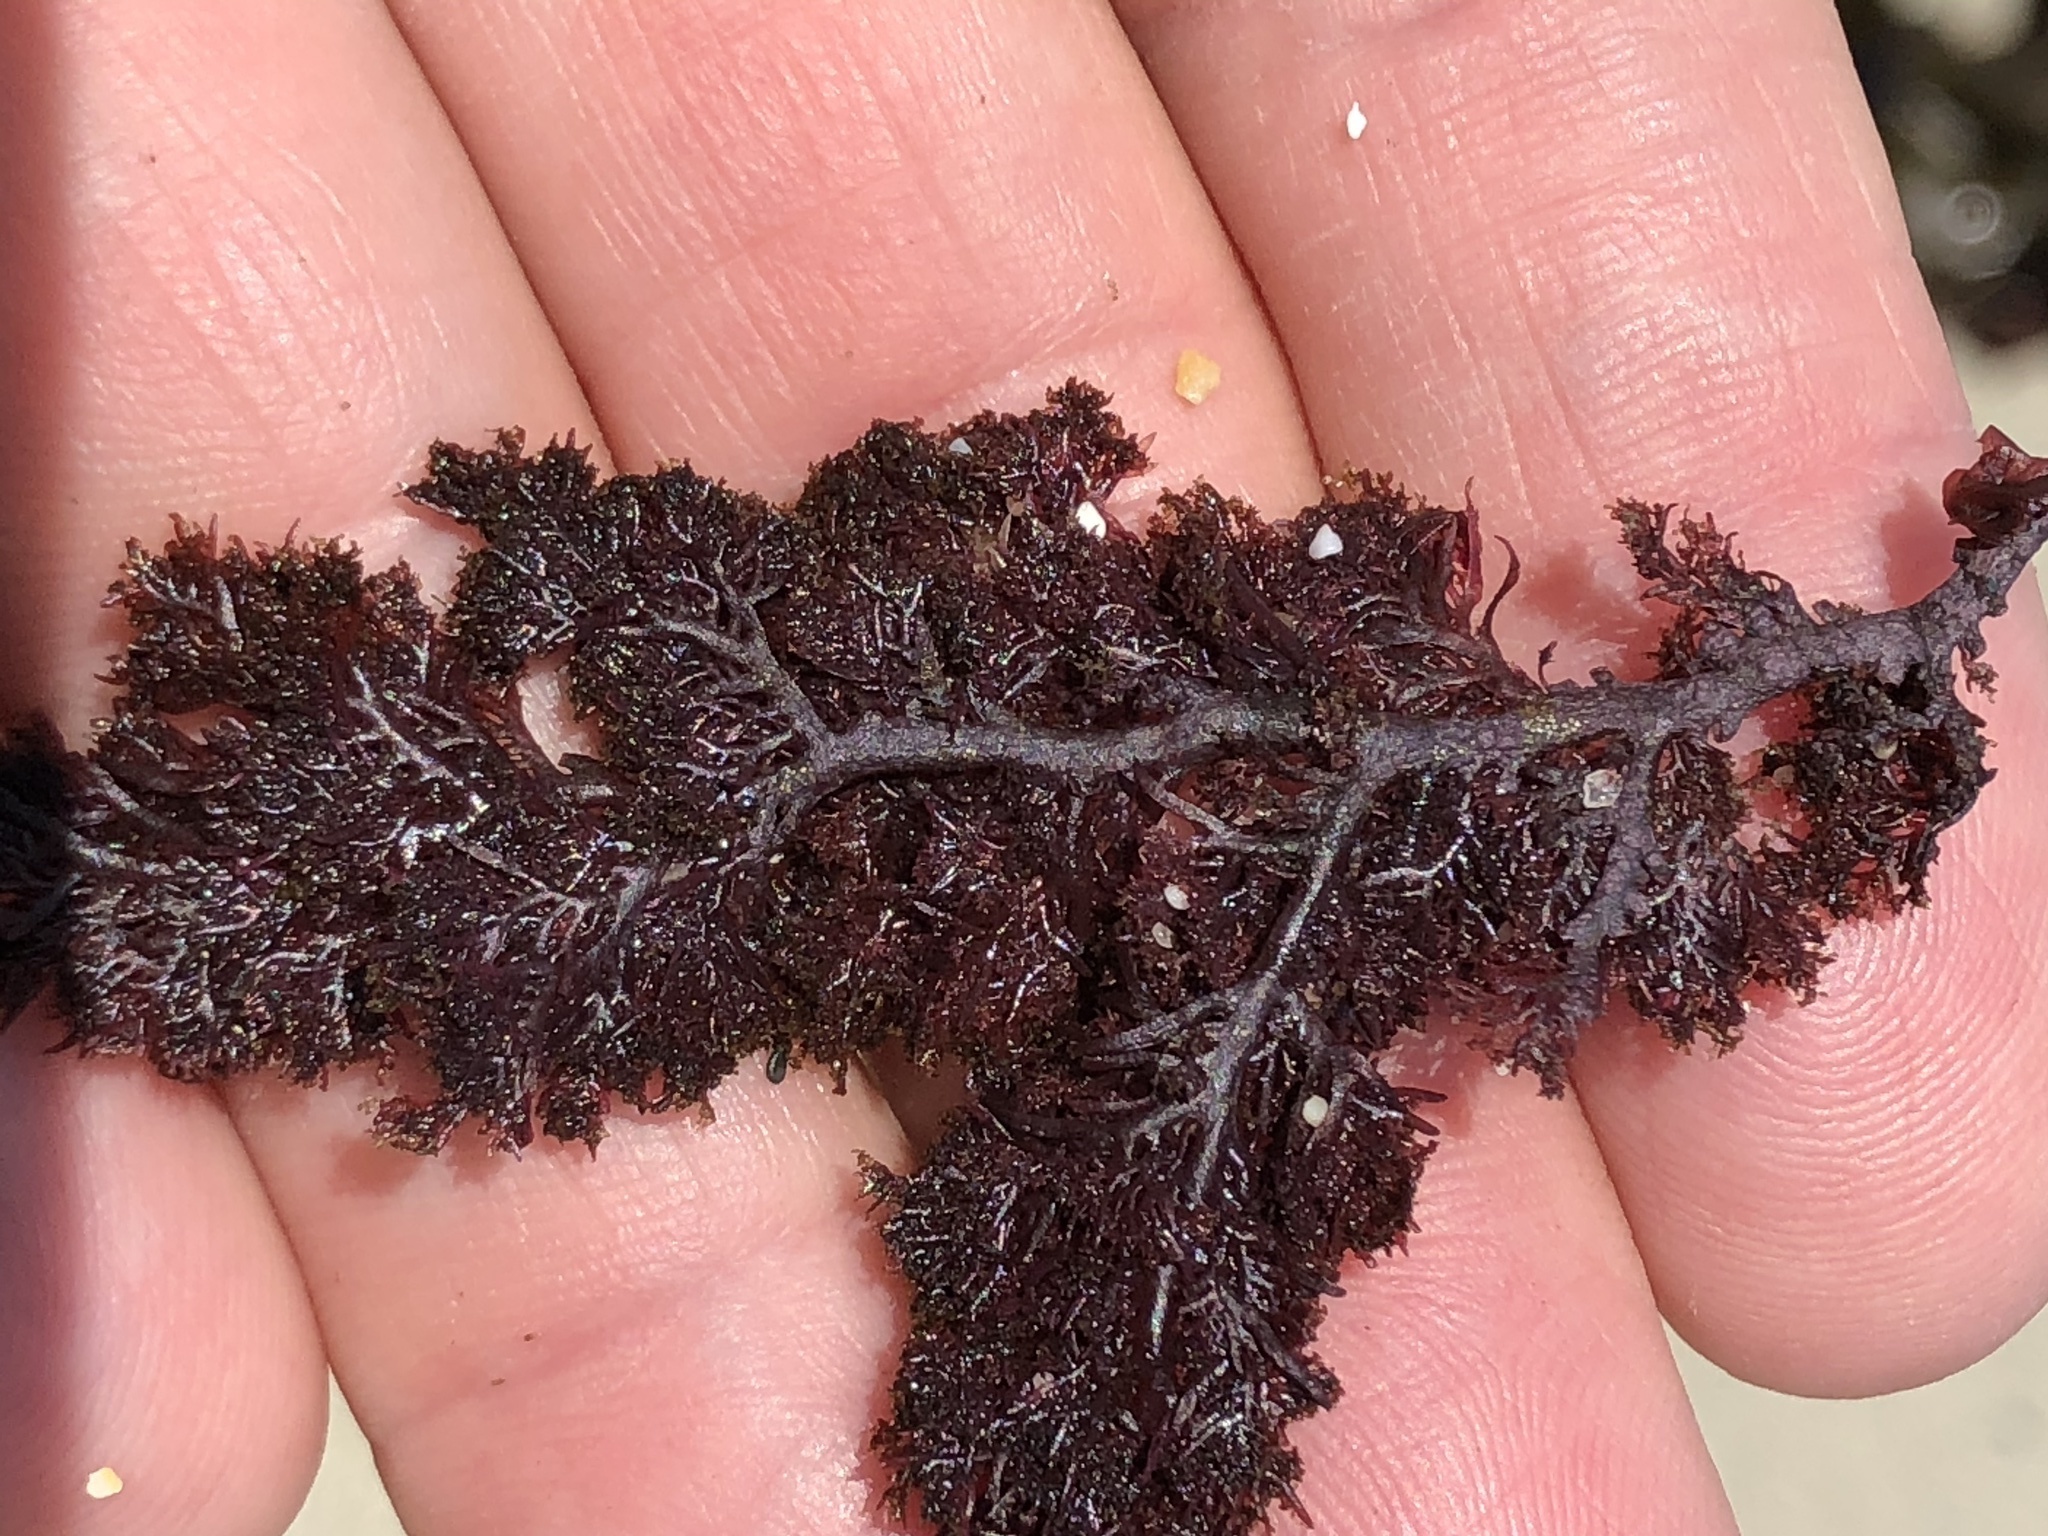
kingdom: Plantae
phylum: Rhodophyta
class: Florideophyceae
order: Plocamiales
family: Plocamiaceae
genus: Plocamium
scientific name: Plocamium cartilagineum
